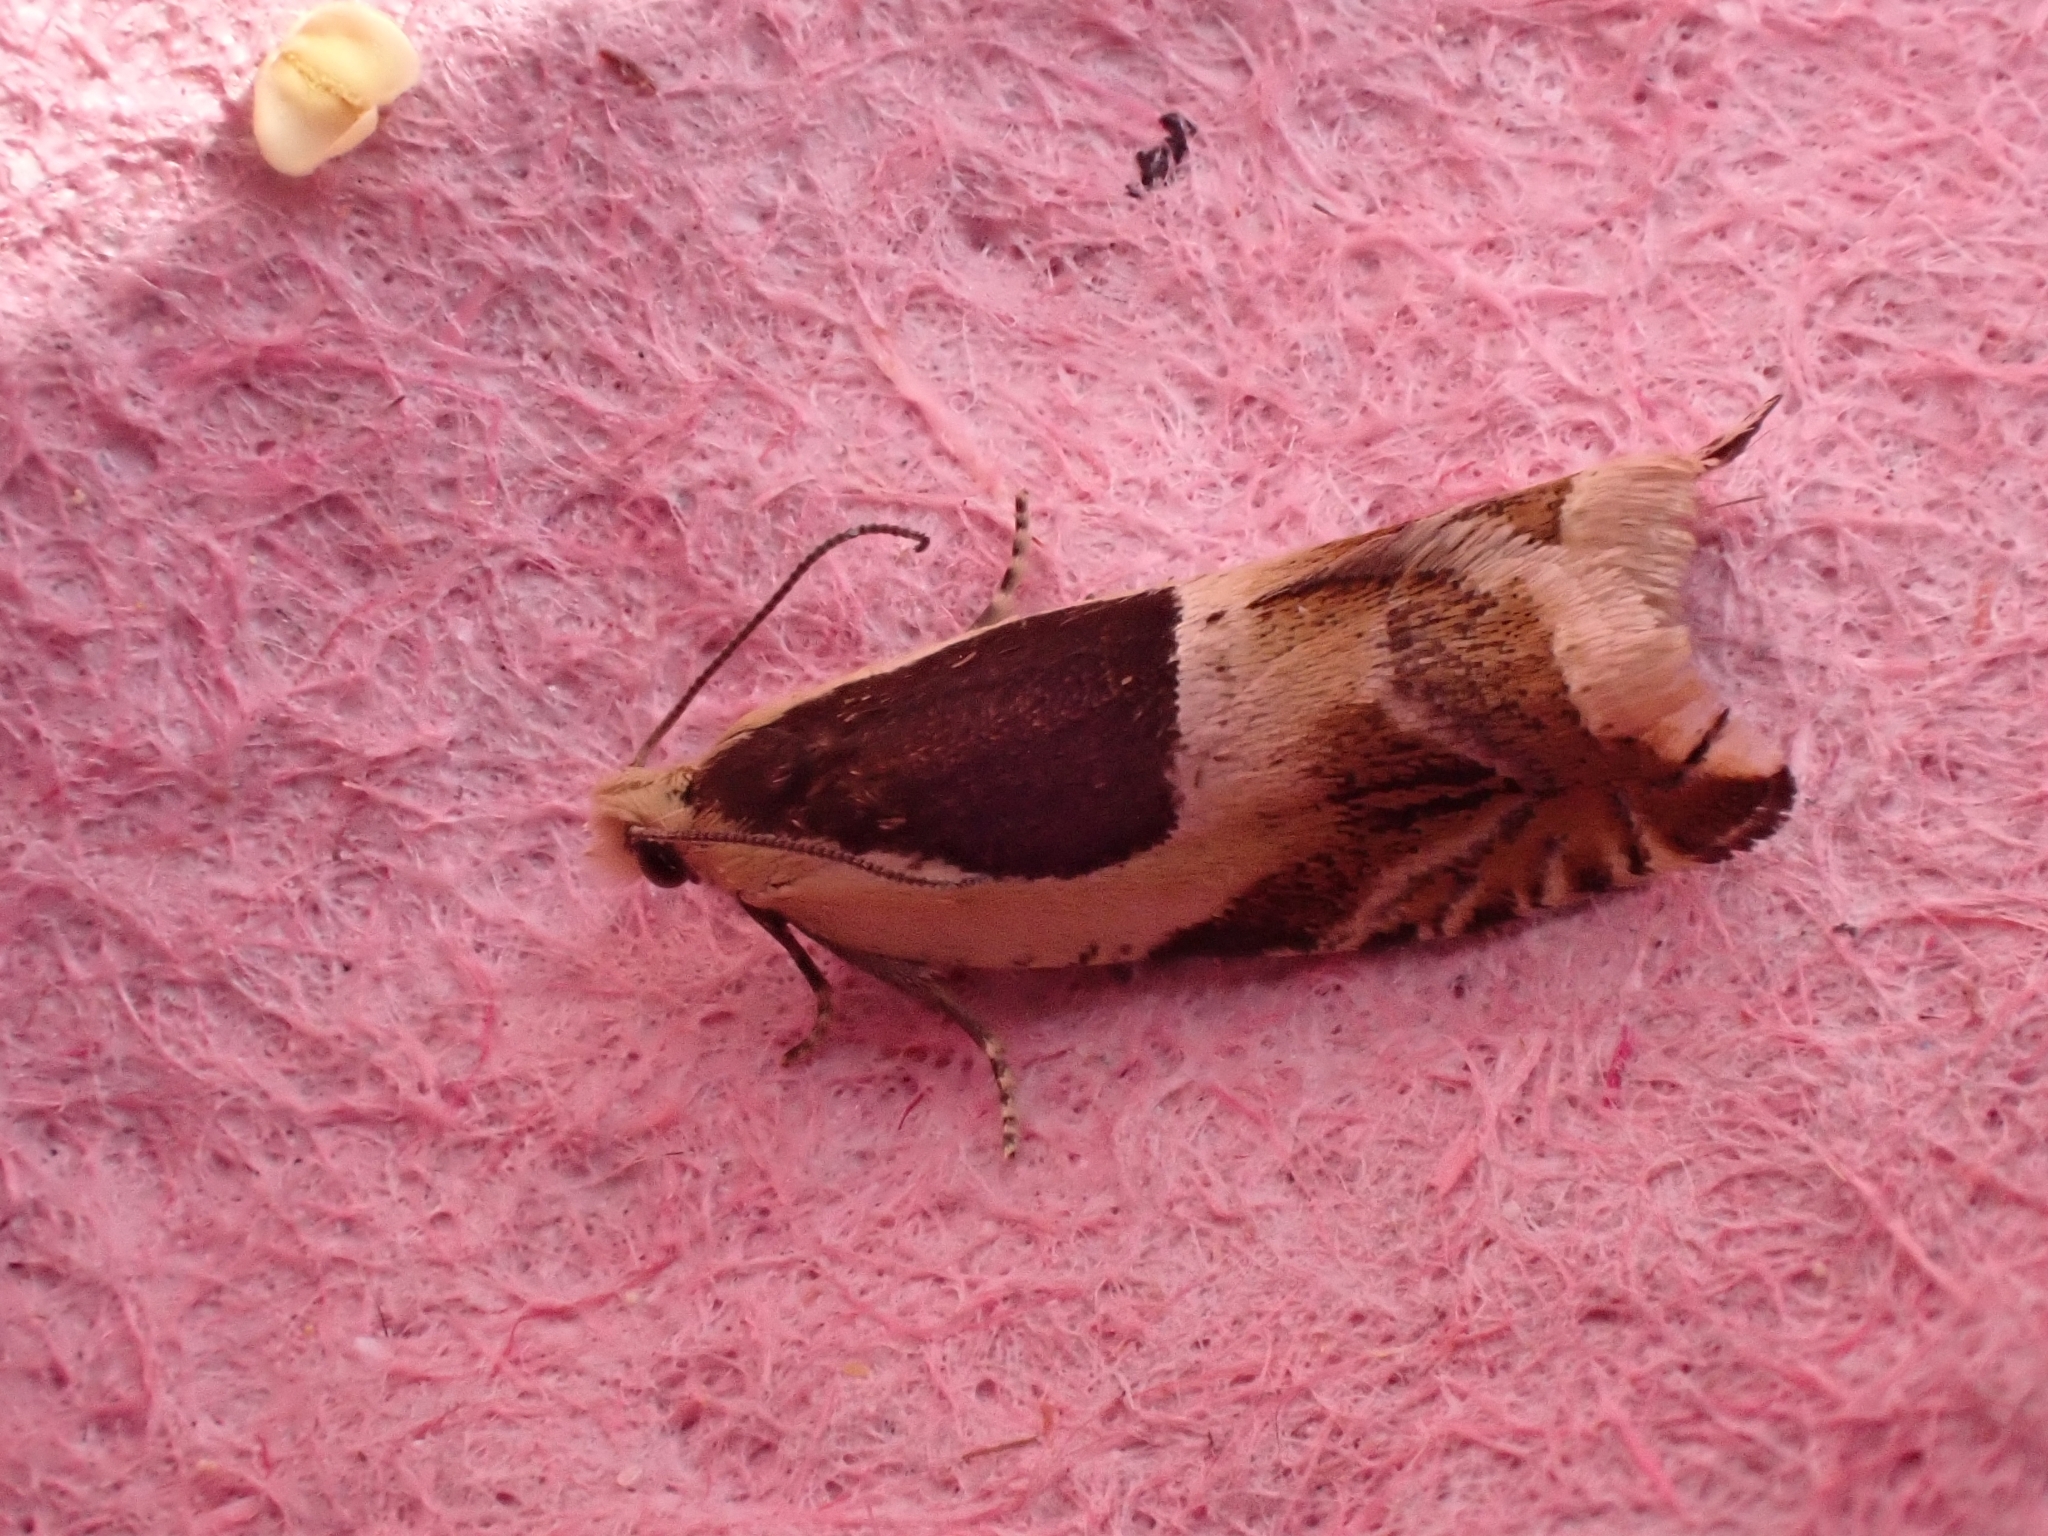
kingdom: Animalia
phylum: Arthropoda
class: Insecta
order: Lepidoptera
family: Tortricidae
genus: Ancylis
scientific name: Ancylis badiana
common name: Common roller
